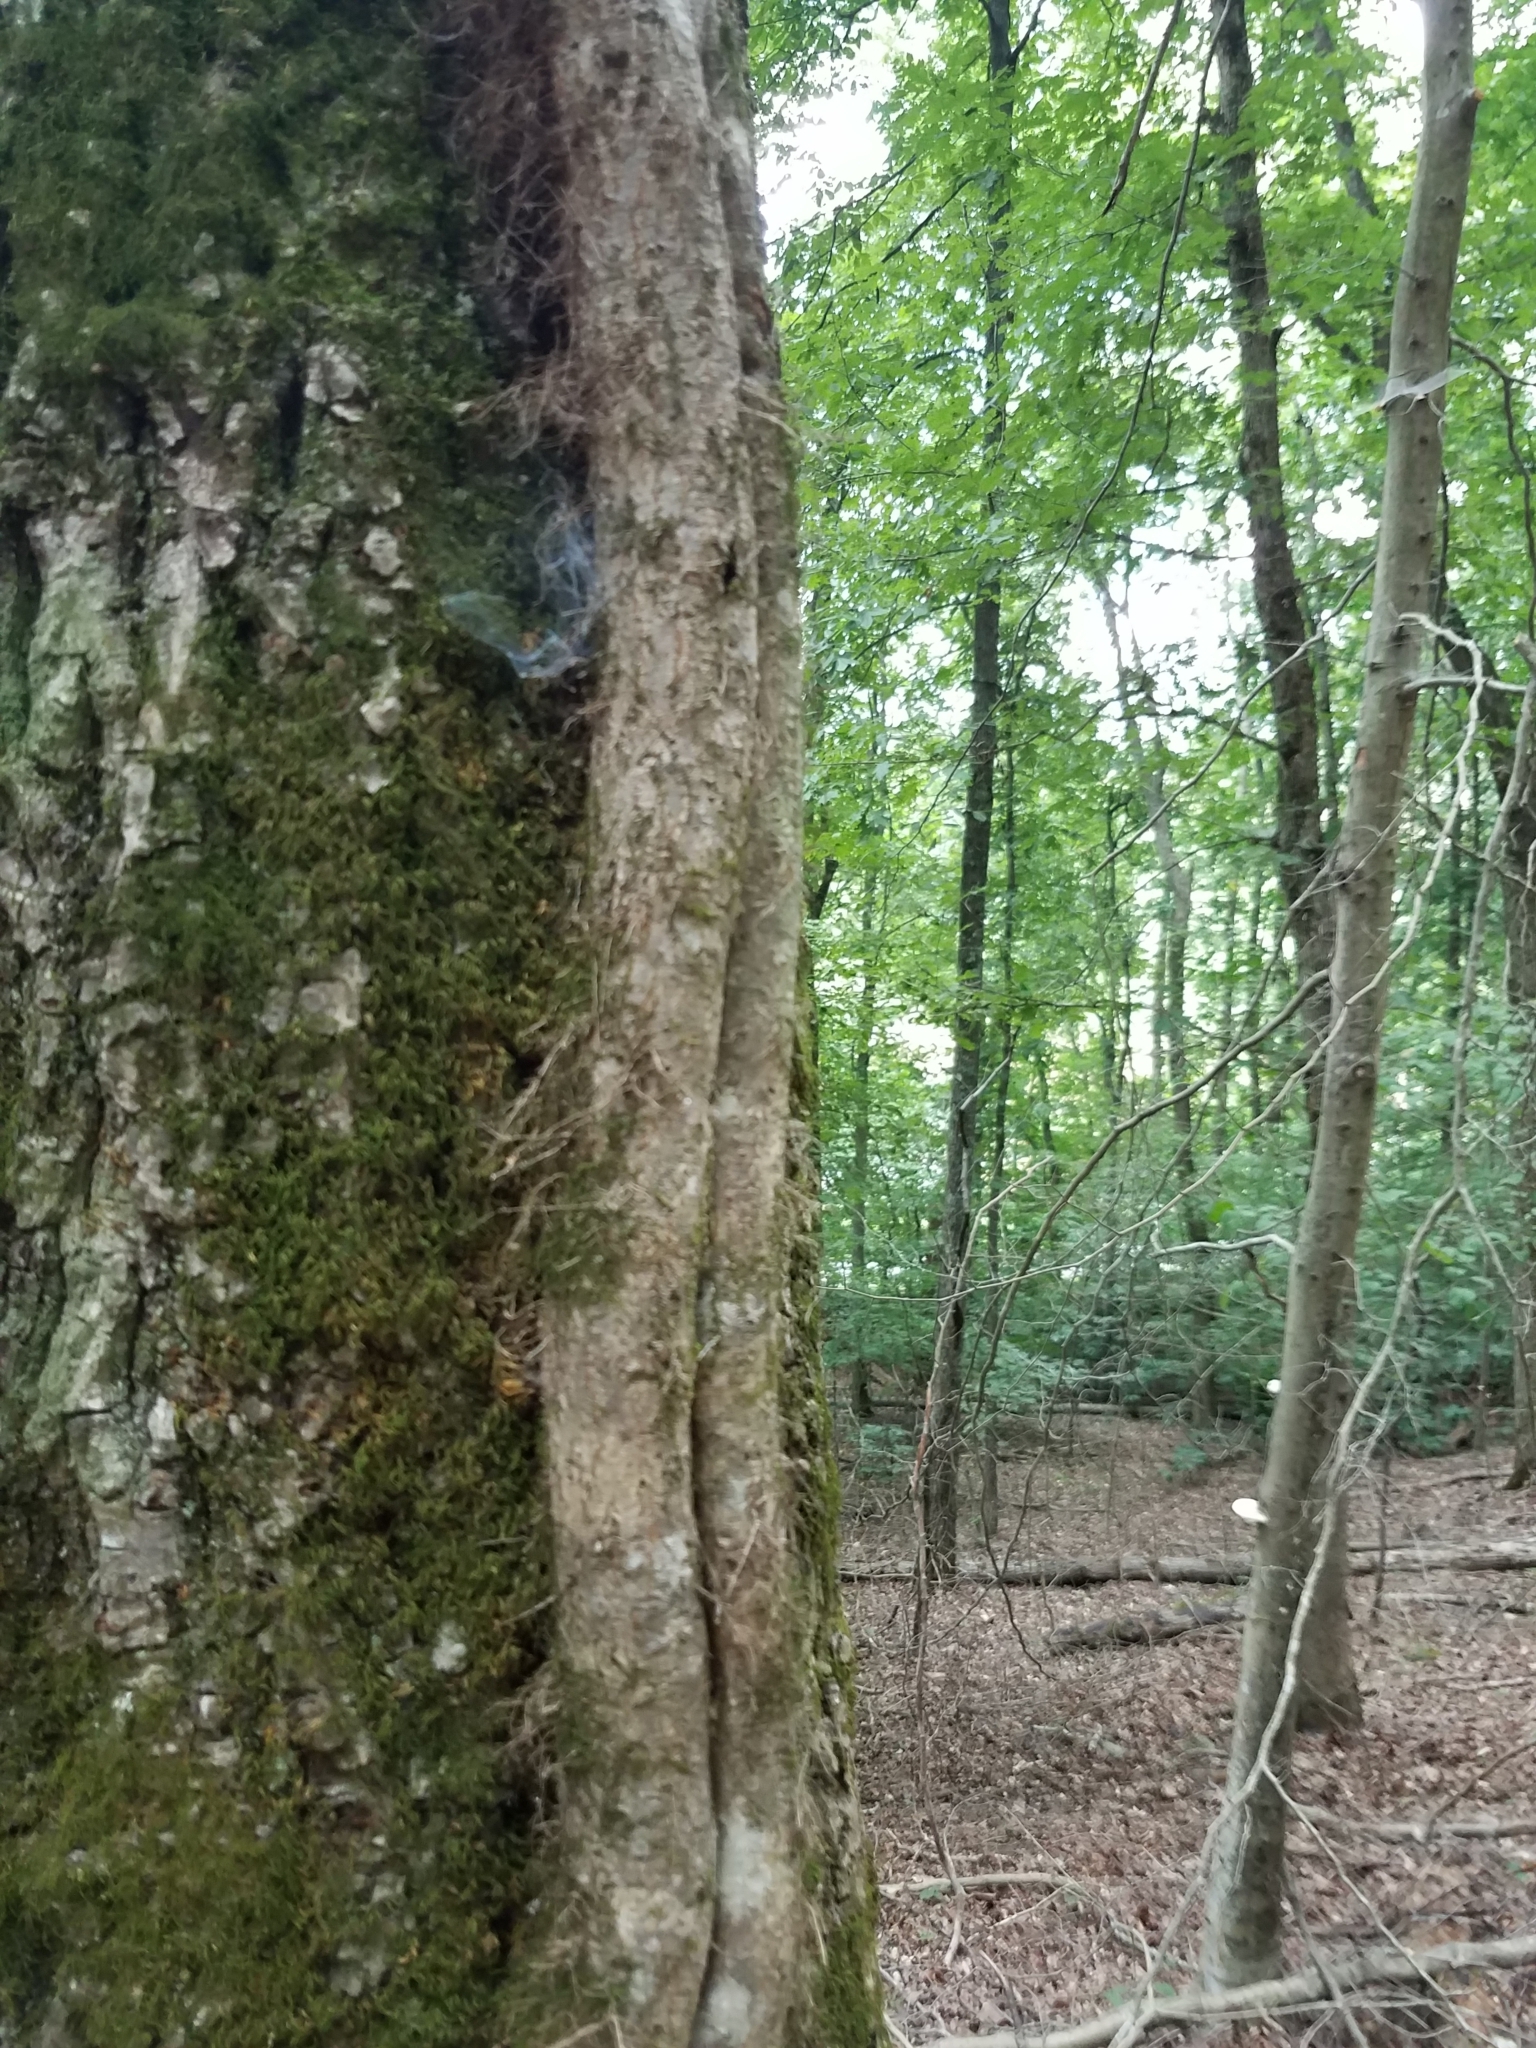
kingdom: Plantae
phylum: Tracheophyta
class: Magnoliopsida
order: Sapindales
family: Anacardiaceae
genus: Toxicodendron
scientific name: Toxicodendron radicans
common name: Poison ivy
